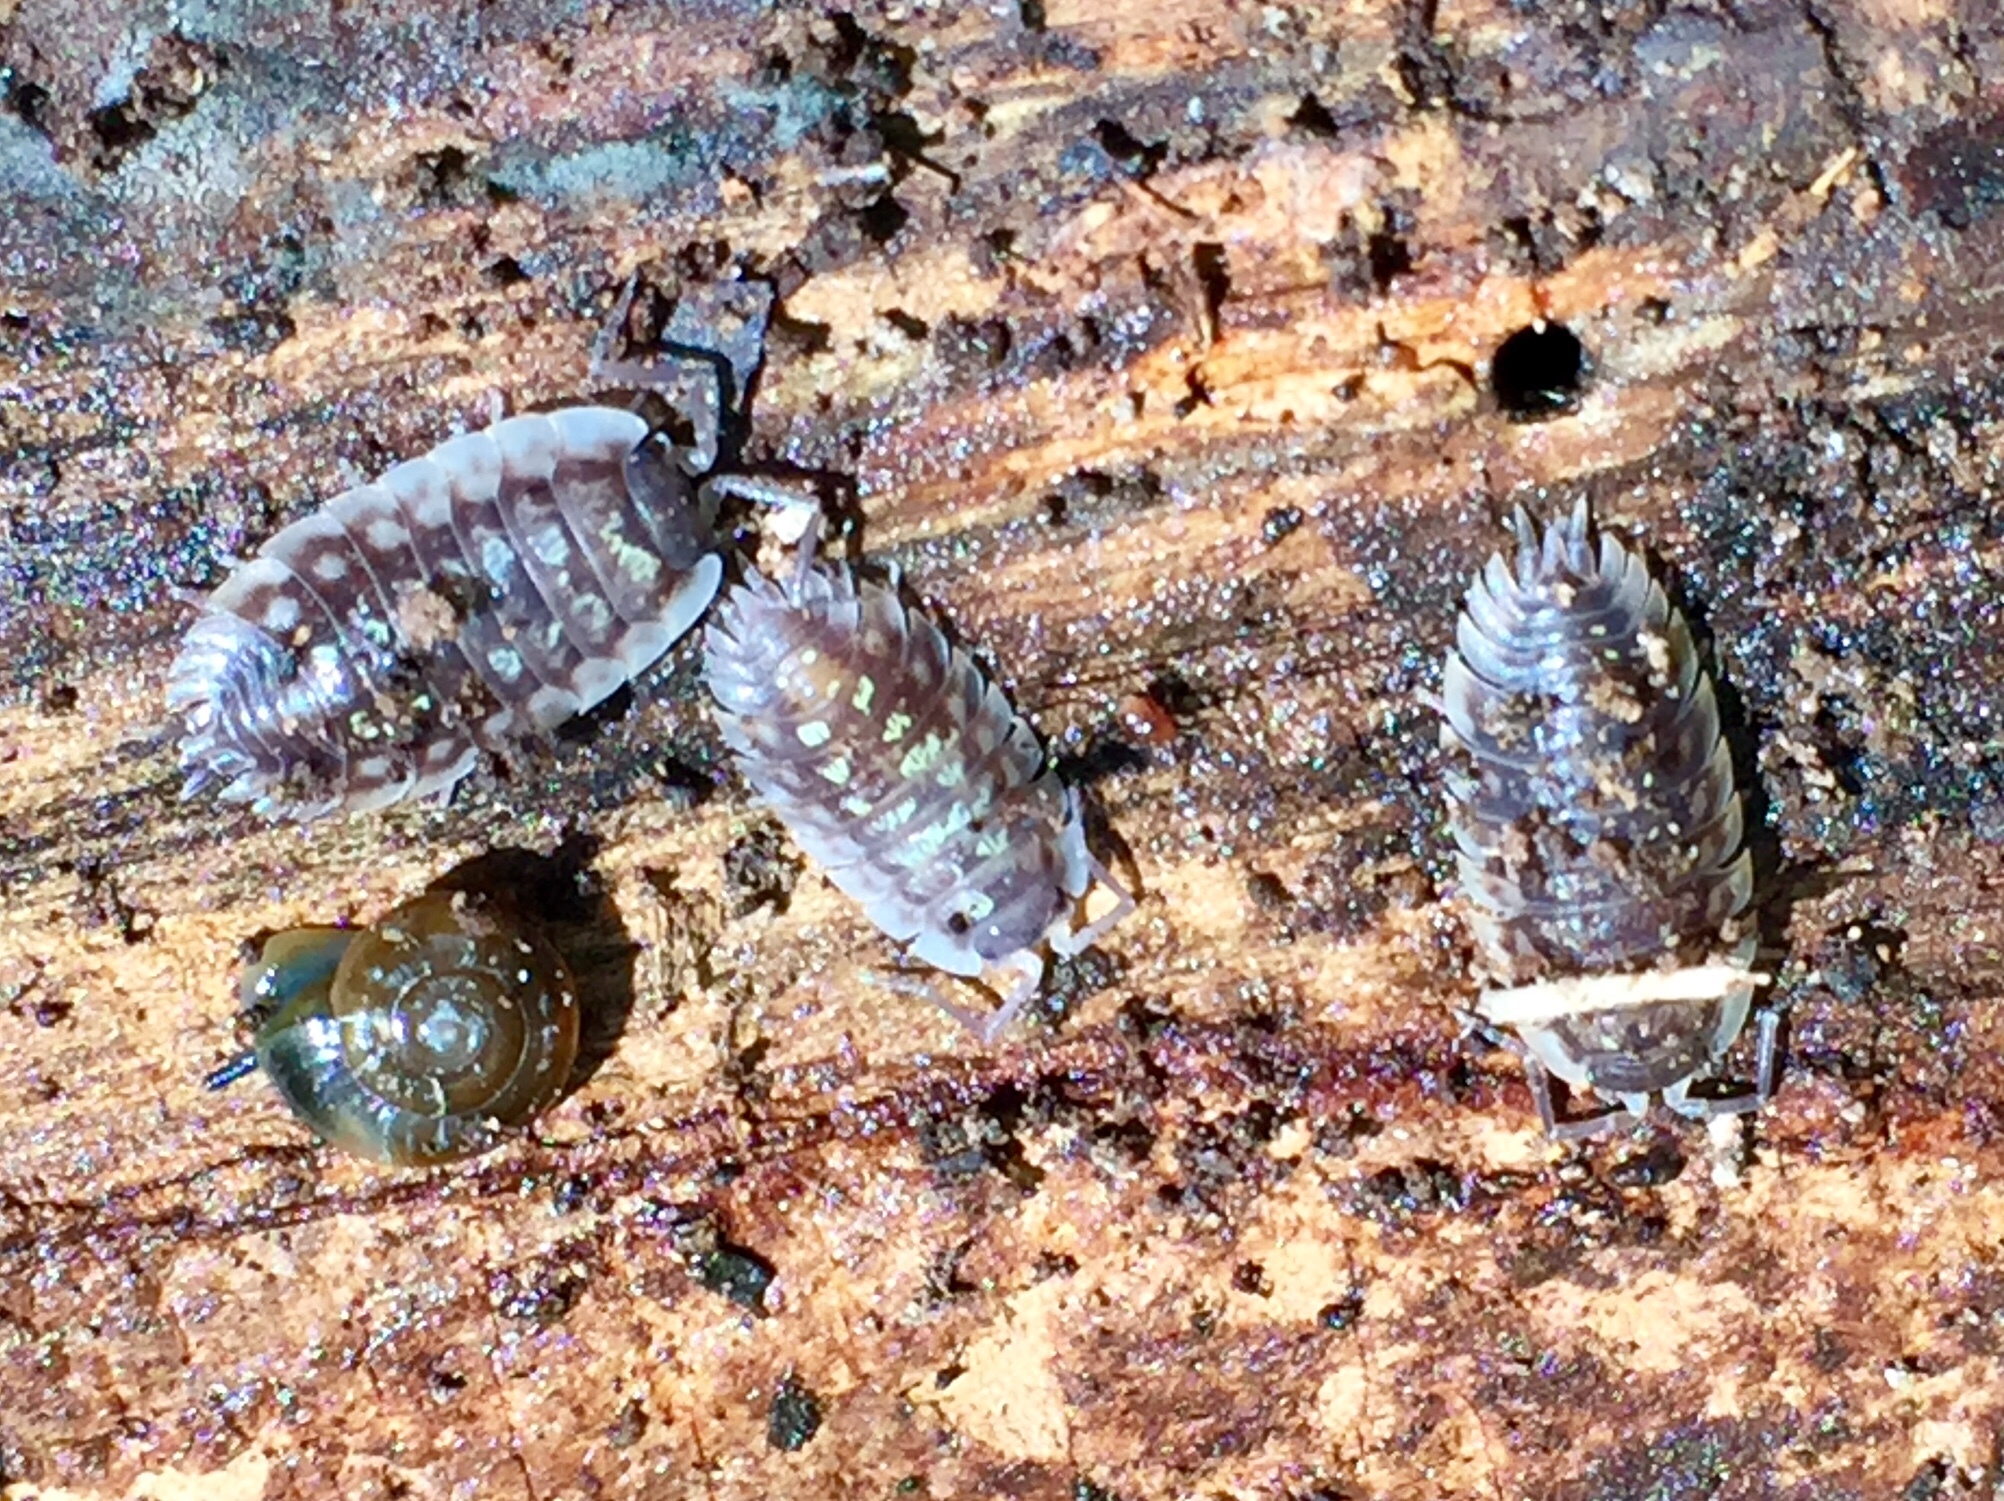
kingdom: Animalia
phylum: Arthropoda
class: Malacostraca
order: Isopoda
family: Oniscidae
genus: Oniscus
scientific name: Oniscus asellus
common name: Common shiny woodlouse
